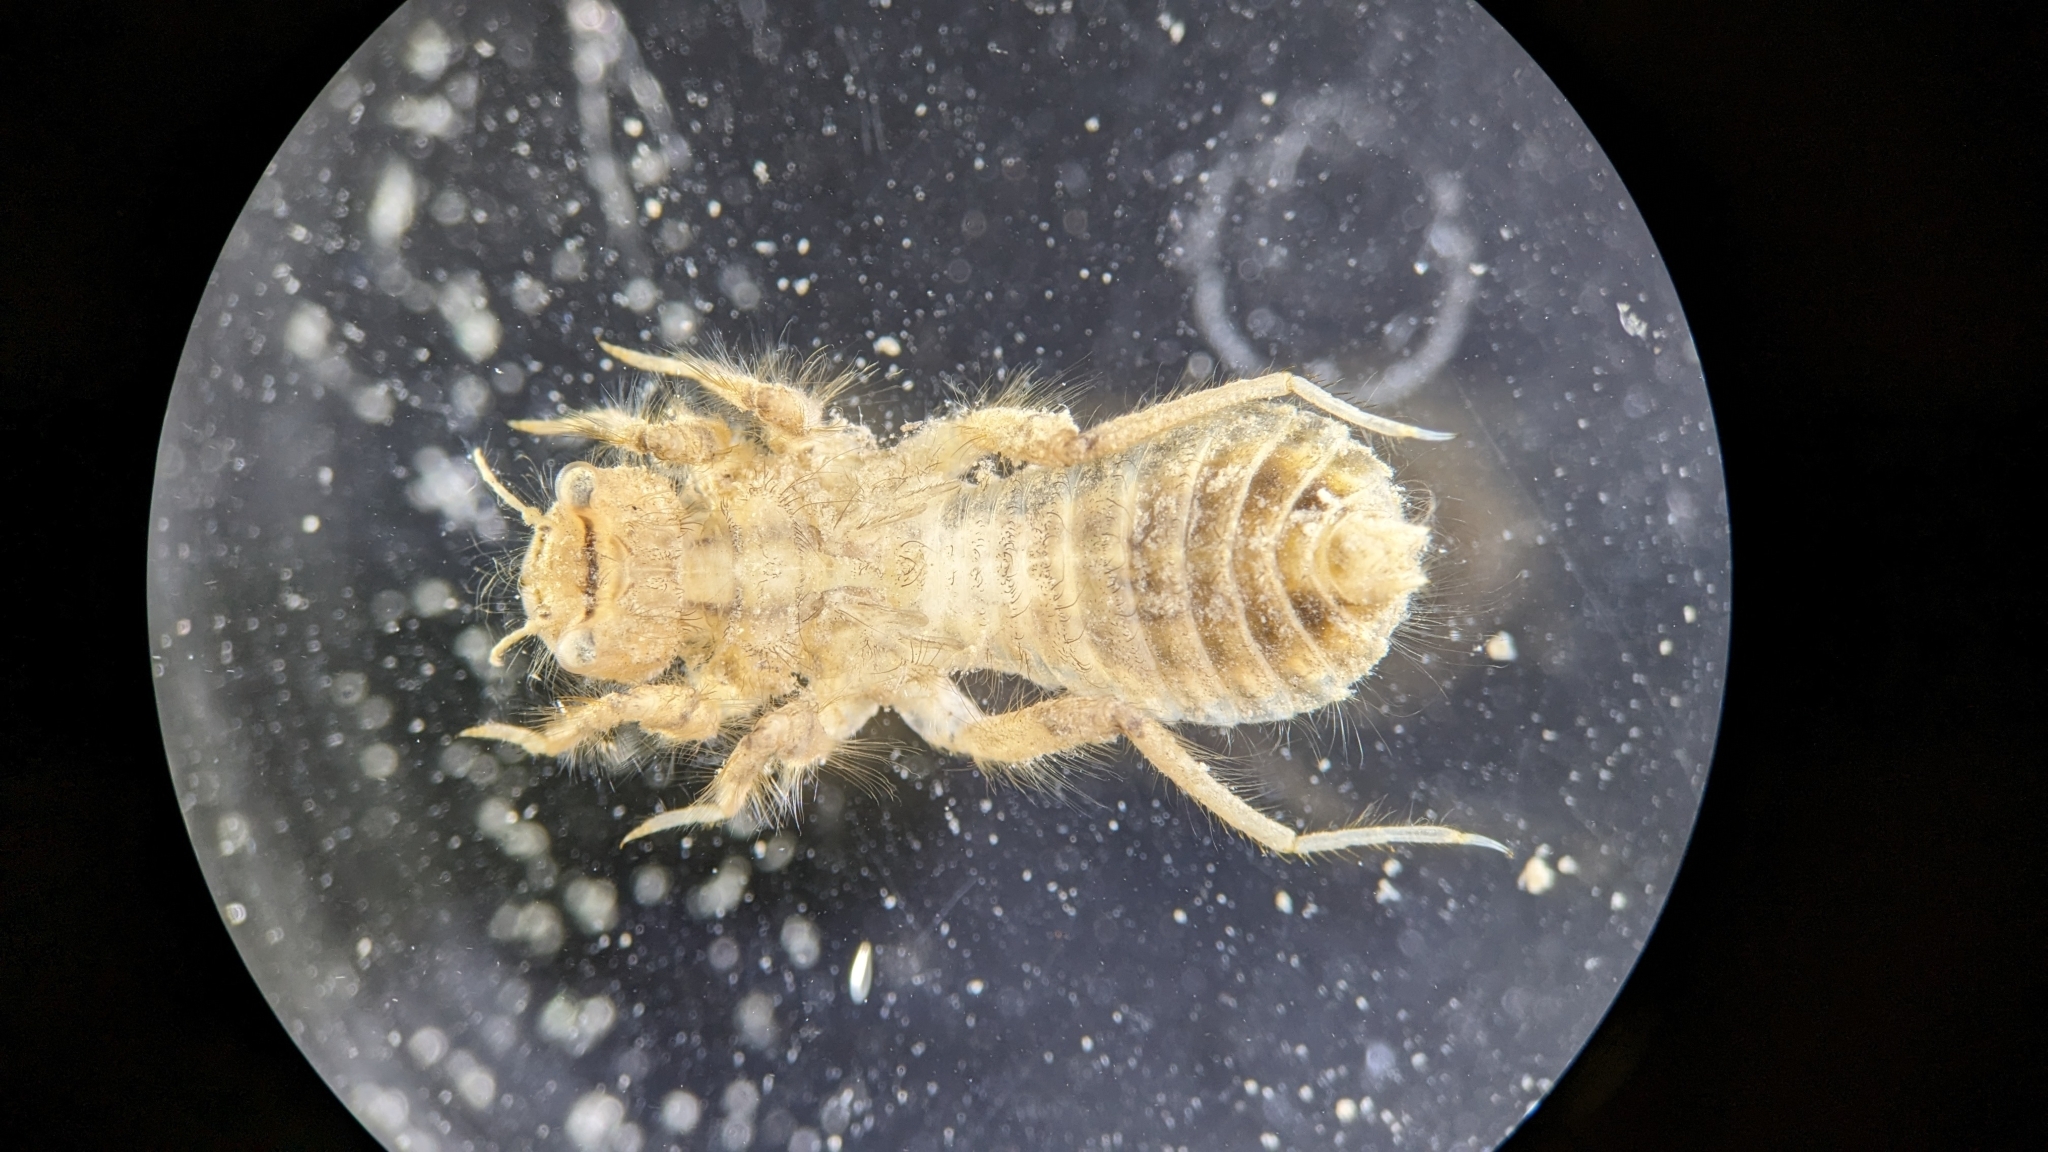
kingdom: Animalia
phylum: Arthropoda
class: Insecta
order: Odonata
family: Libellulidae
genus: Orthemis
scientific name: Orthemis ferruginea
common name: Roseate skimmer
